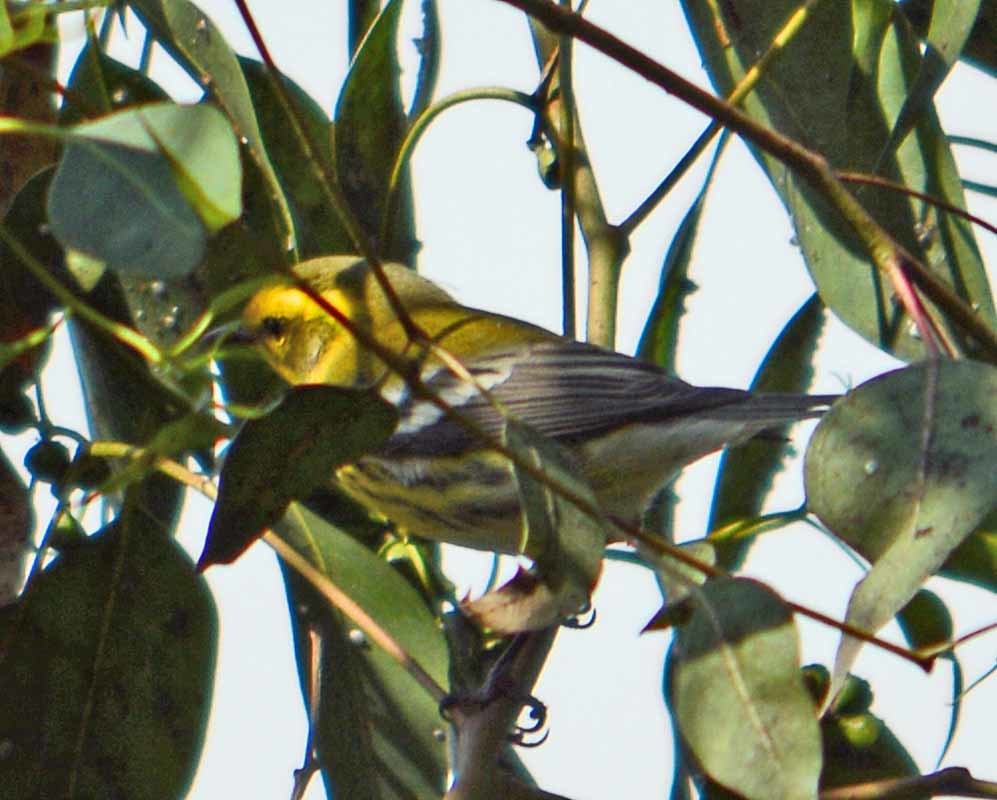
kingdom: Animalia
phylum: Chordata
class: Aves
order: Passeriformes
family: Parulidae
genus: Setophaga
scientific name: Setophaga townsendi
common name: Townsend's warbler
